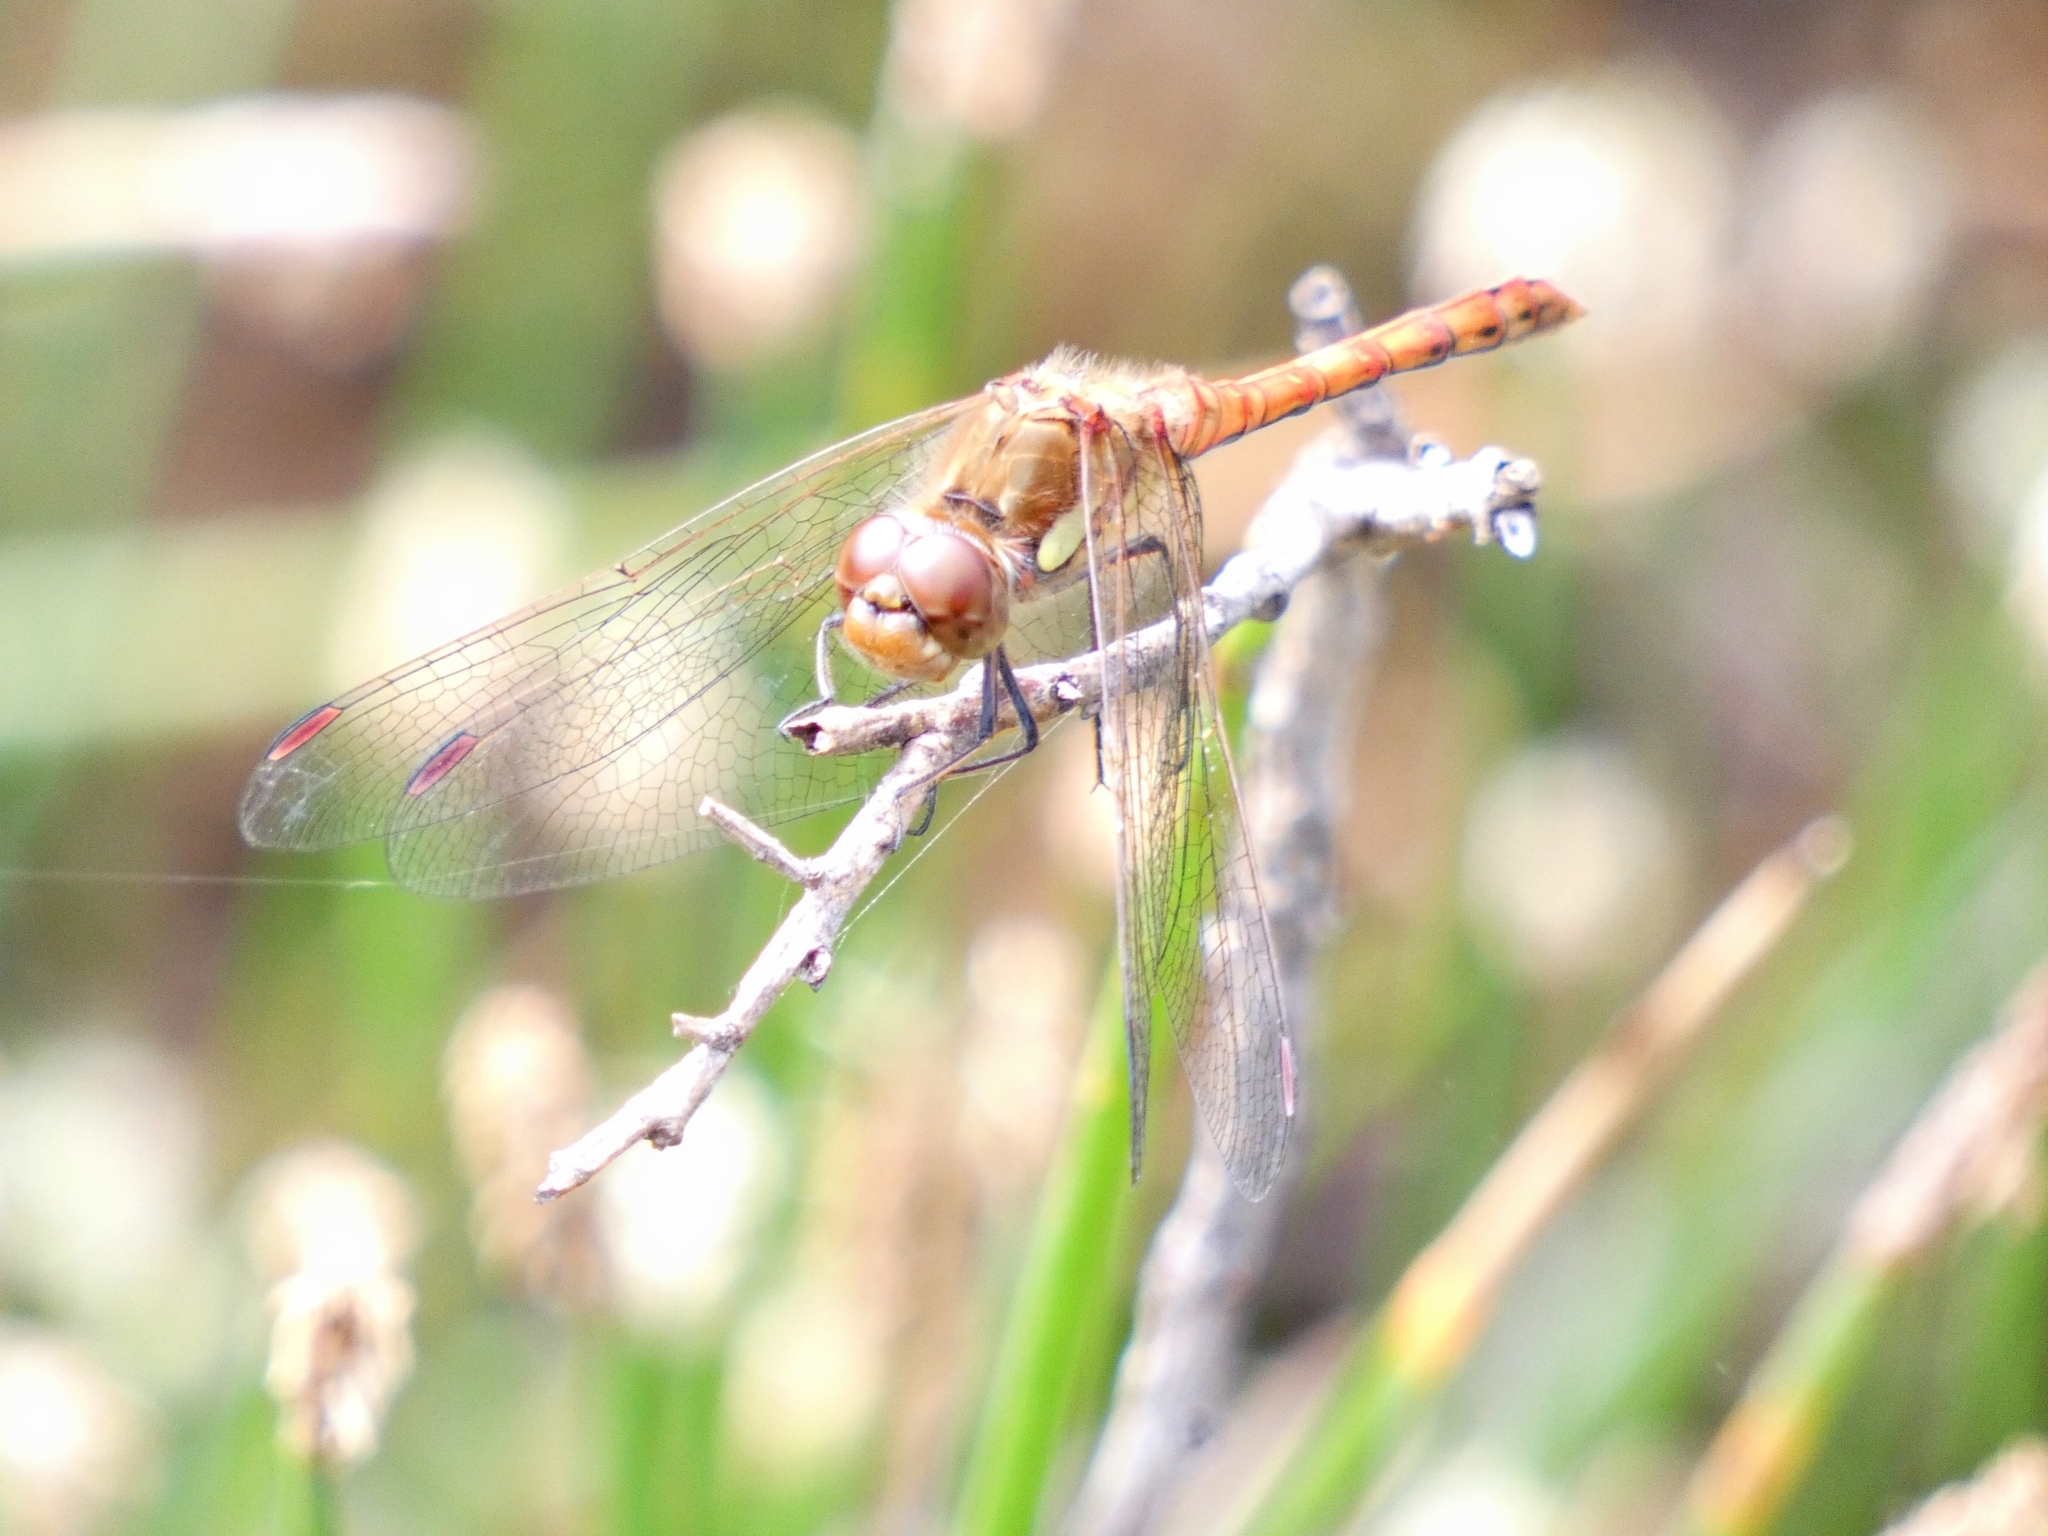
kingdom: Animalia
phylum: Arthropoda
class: Insecta
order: Odonata
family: Libellulidae
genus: Sympetrum
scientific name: Sympetrum striolatum
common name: Common darter
